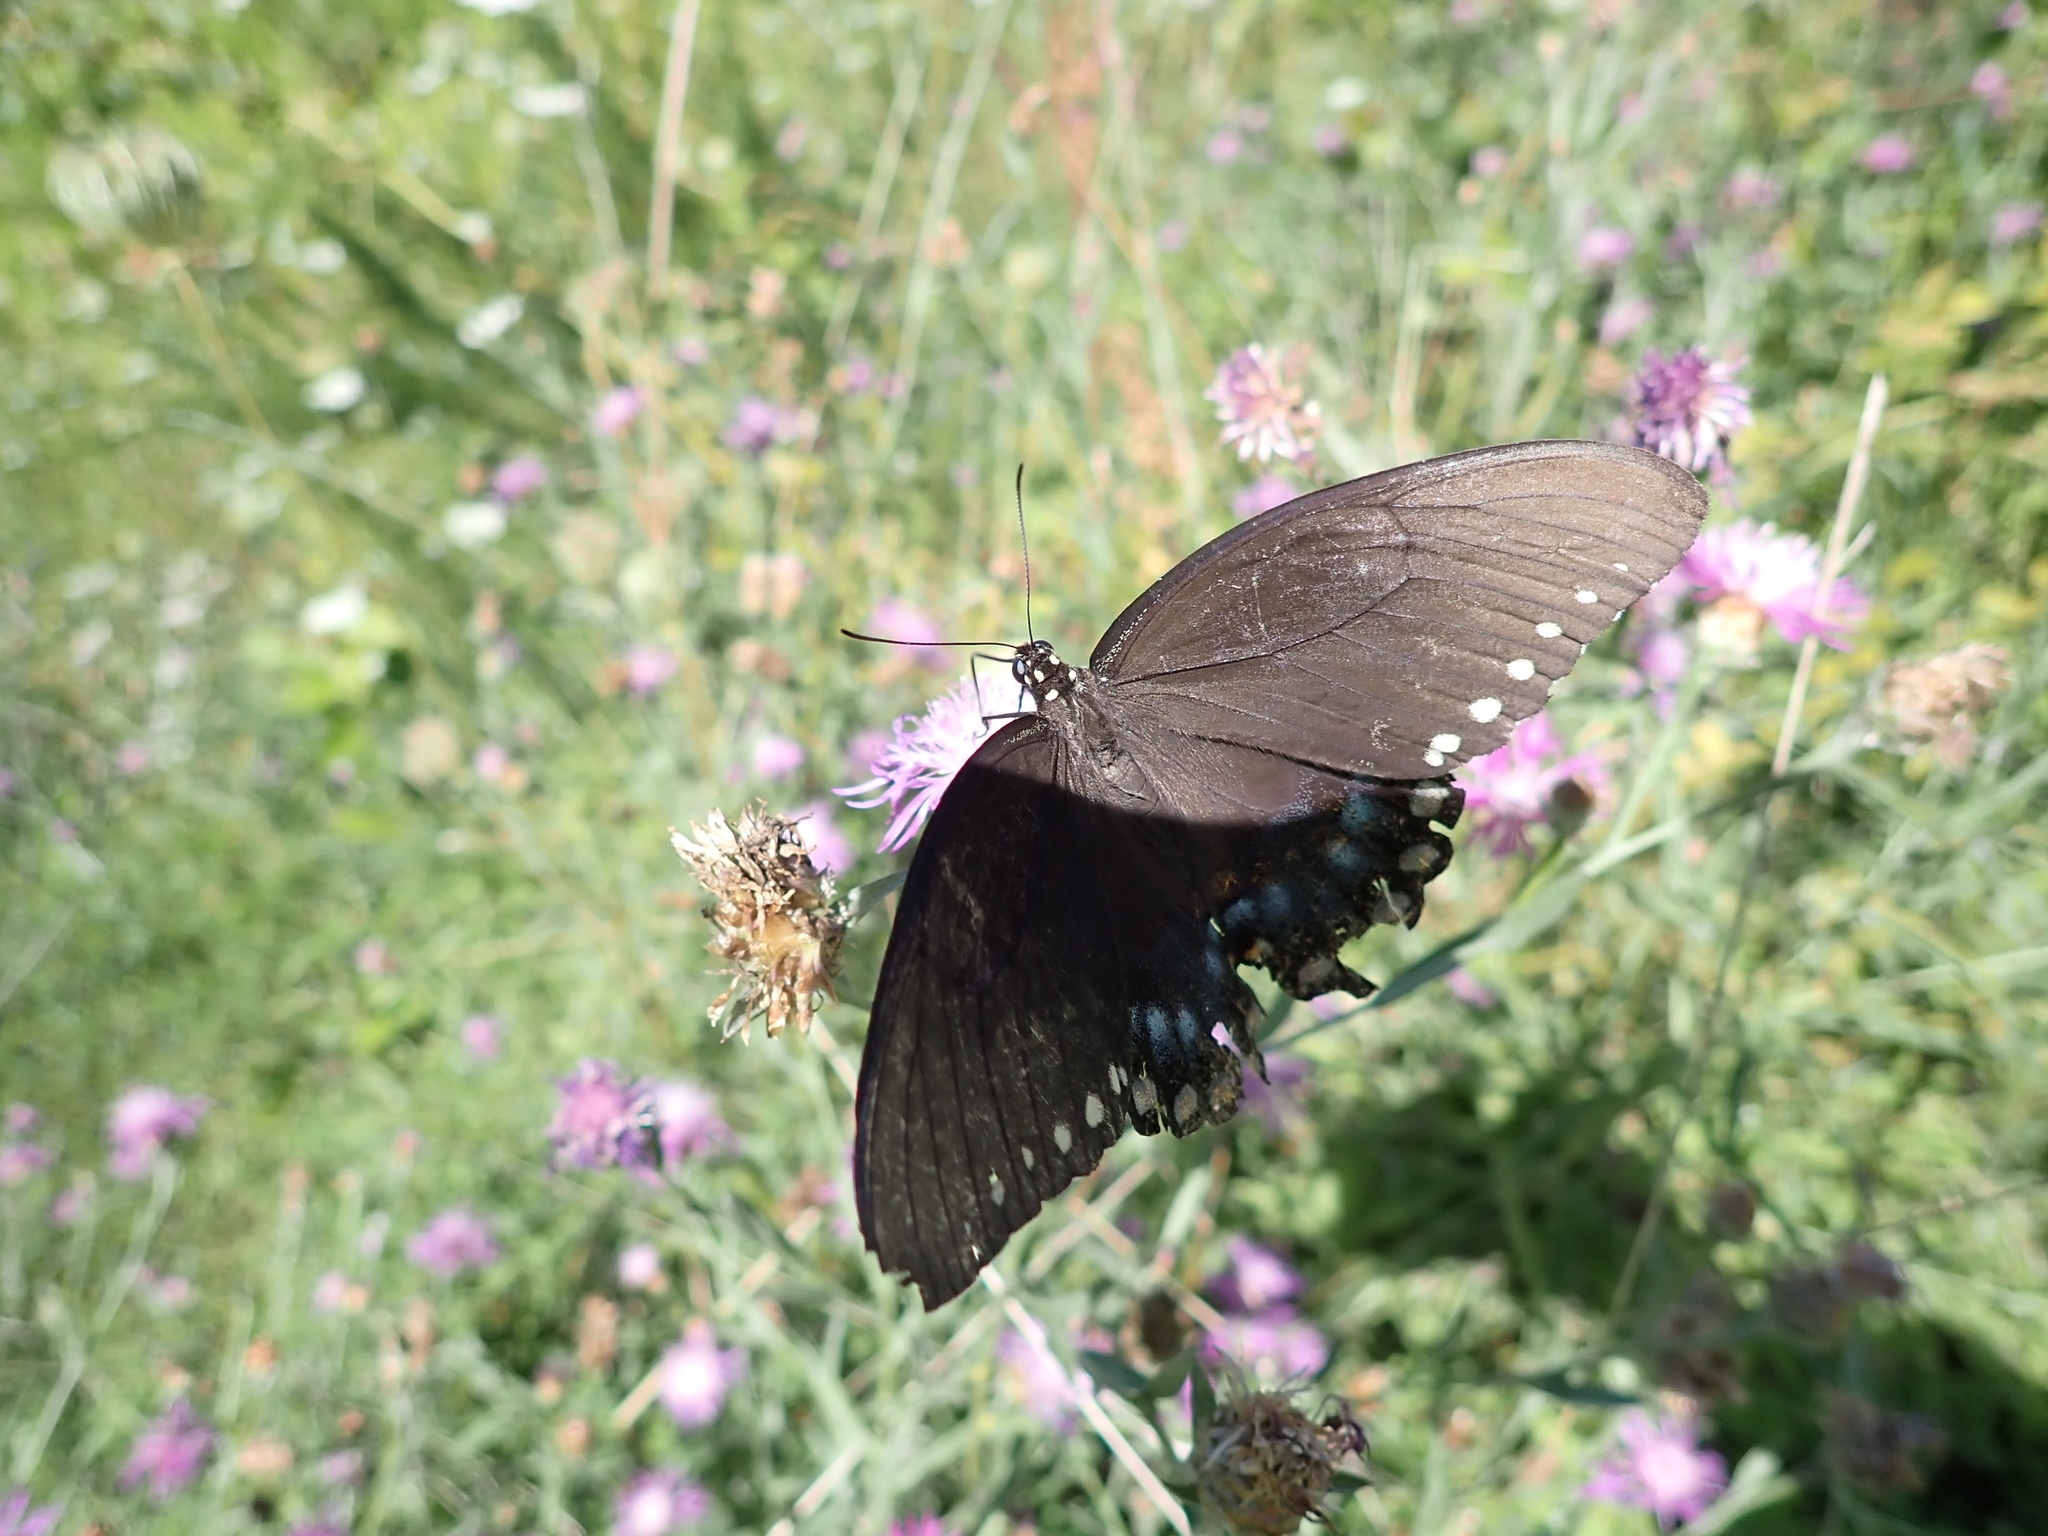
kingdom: Animalia
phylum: Arthropoda
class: Insecta
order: Lepidoptera
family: Papilionidae
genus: Papilio
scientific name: Papilio troilus
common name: Spicebush swallowtail
